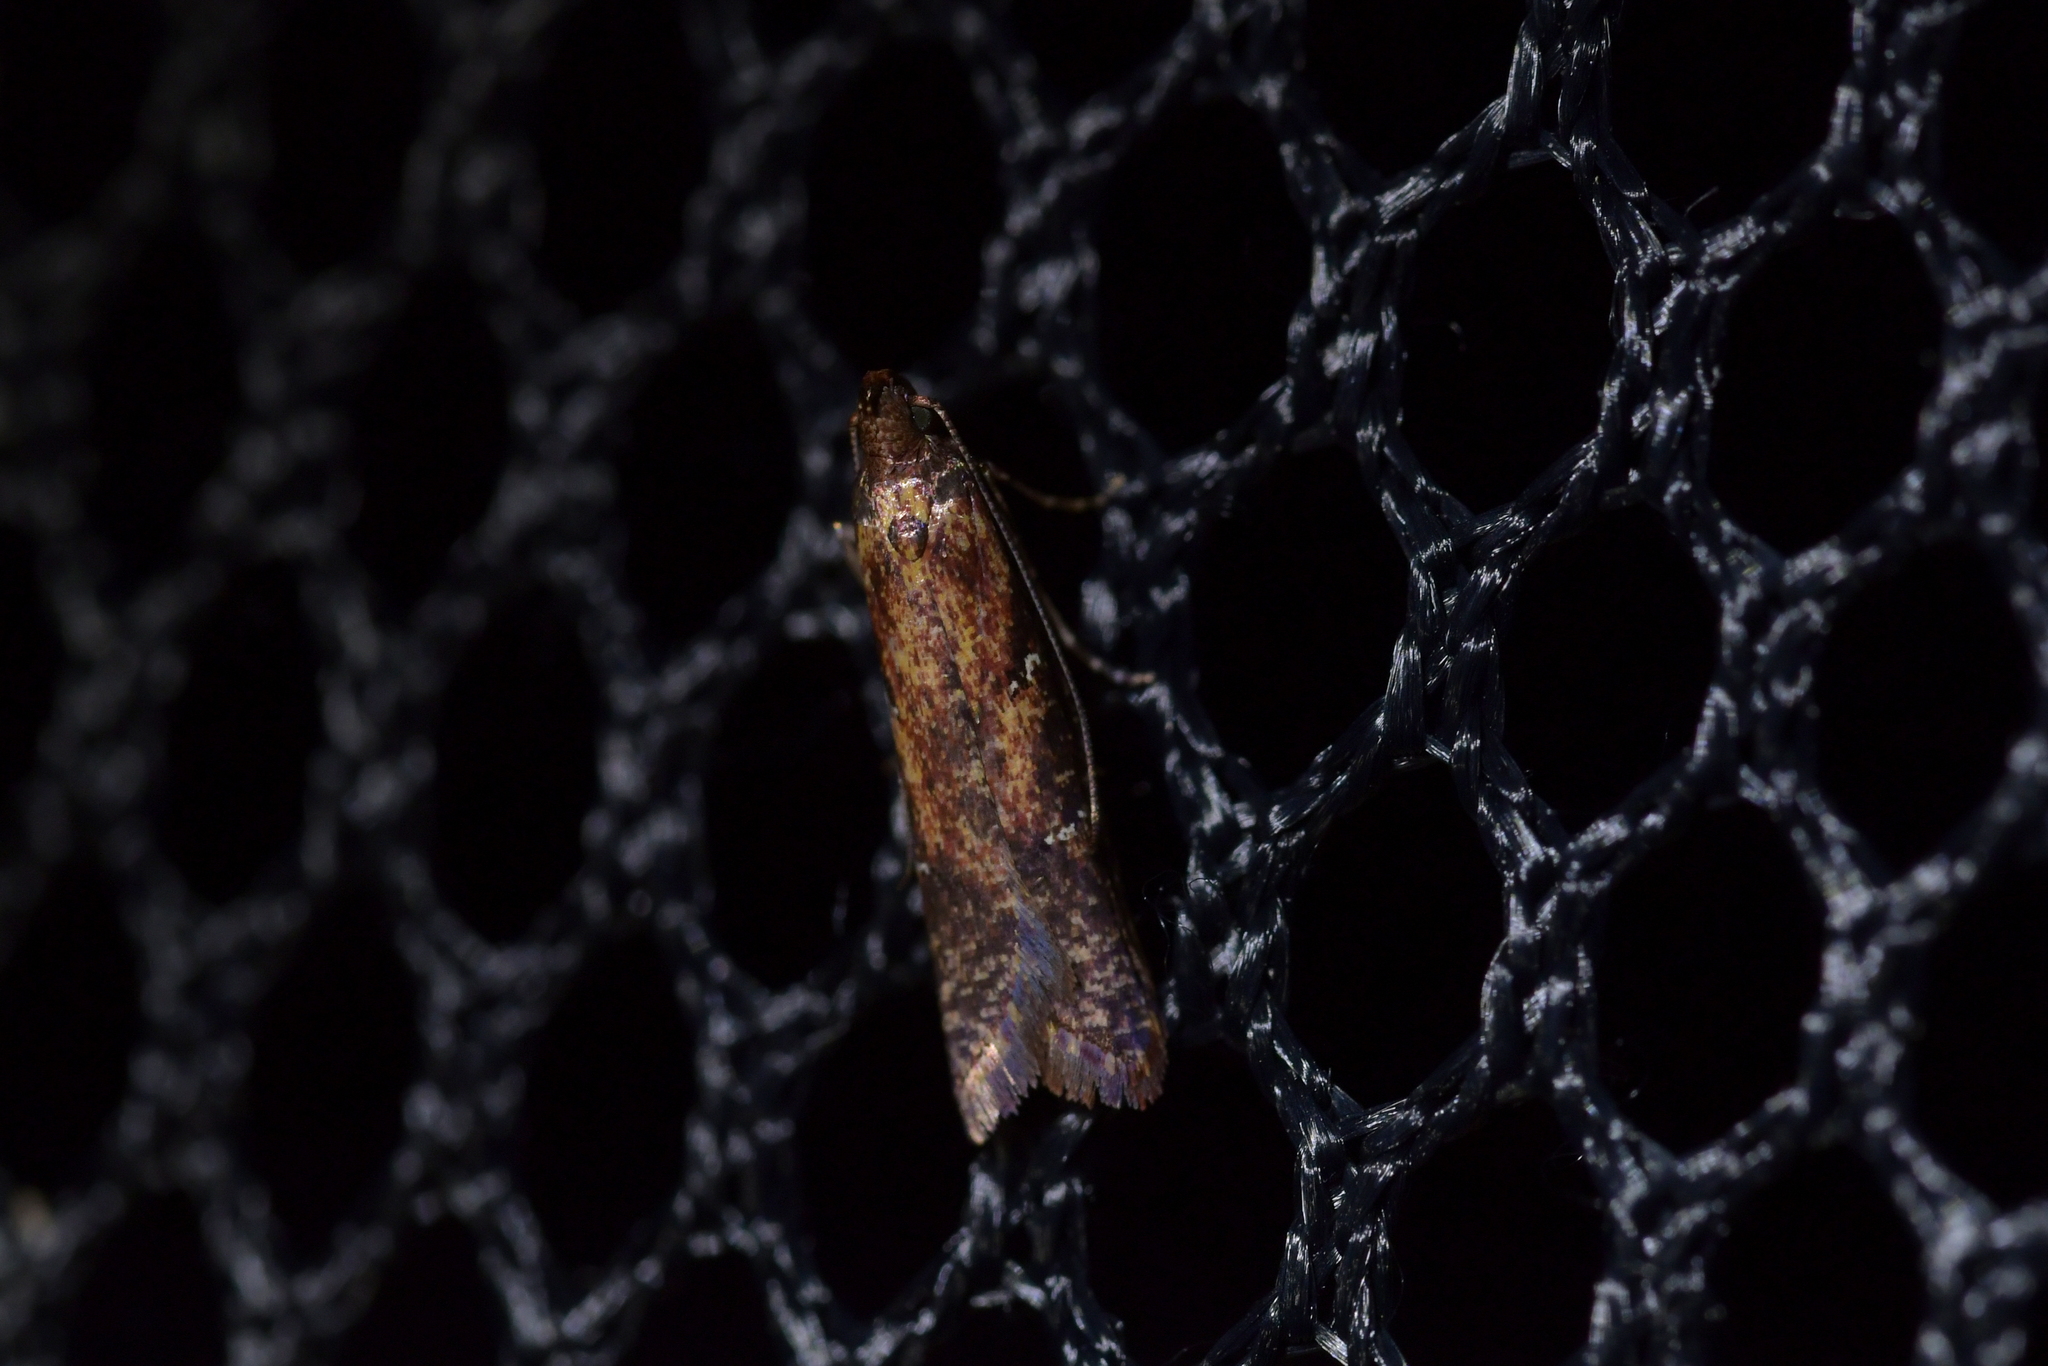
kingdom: Animalia
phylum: Arthropoda
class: Insecta
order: Lepidoptera
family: Plutellidae
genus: Cadmogenes
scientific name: Cadmogenes literata
